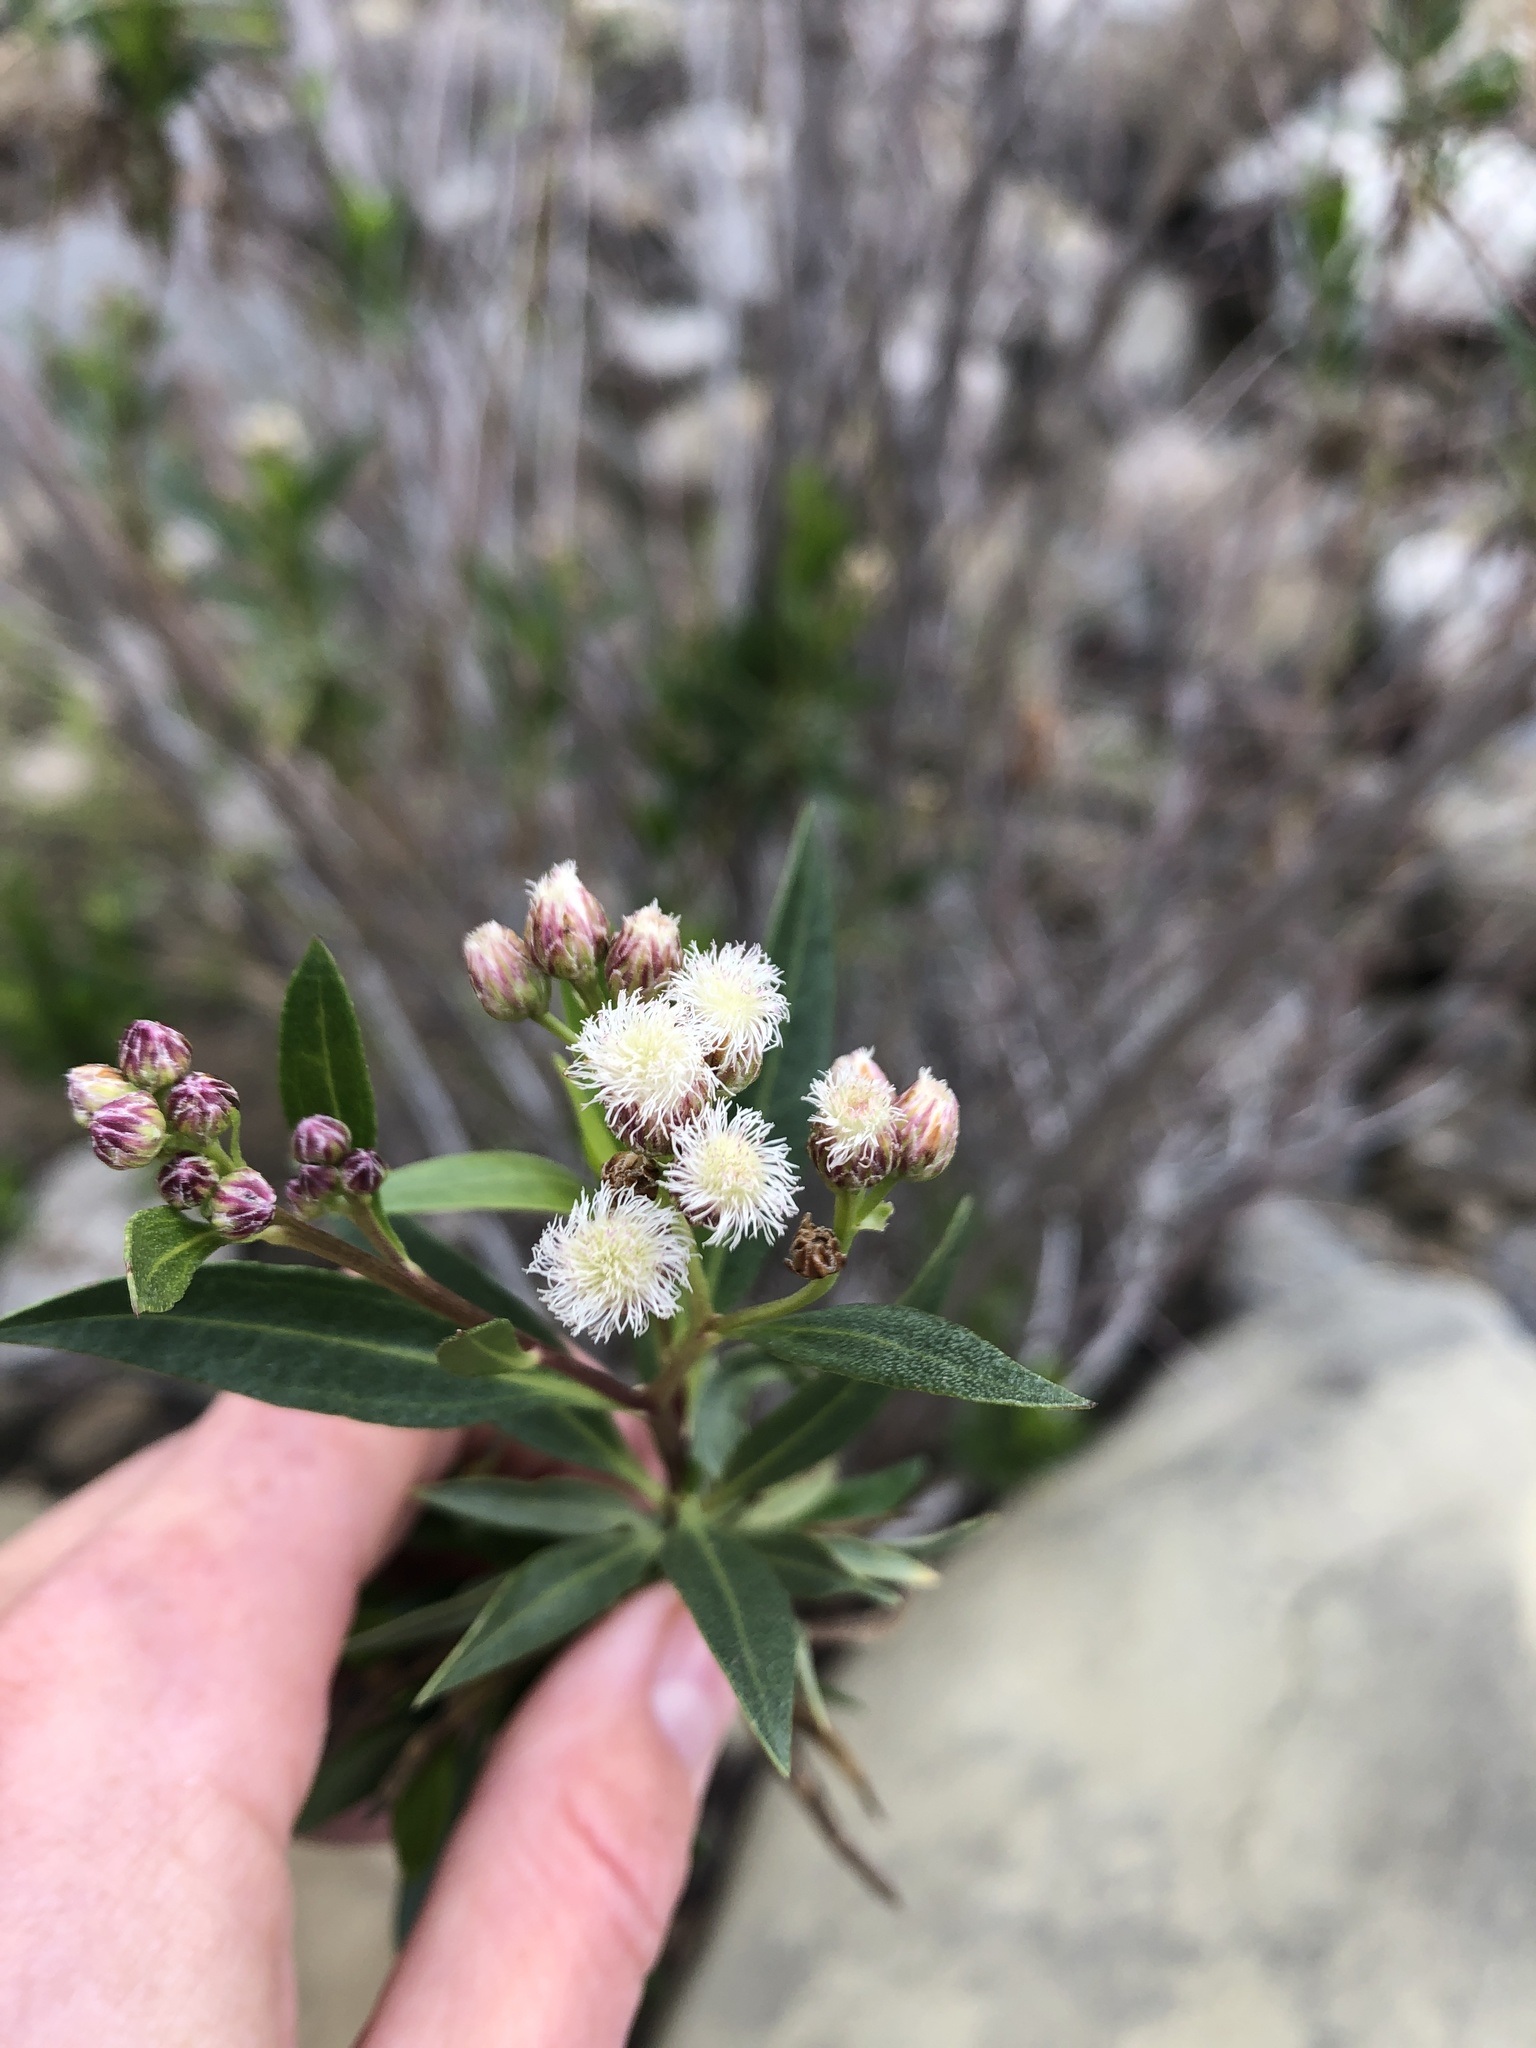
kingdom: Plantae
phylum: Tracheophyta
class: Magnoliopsida
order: Asterales
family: Asteraceae
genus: Baccharis
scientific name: Baccharis salicifolia
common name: Sticky baccharis
